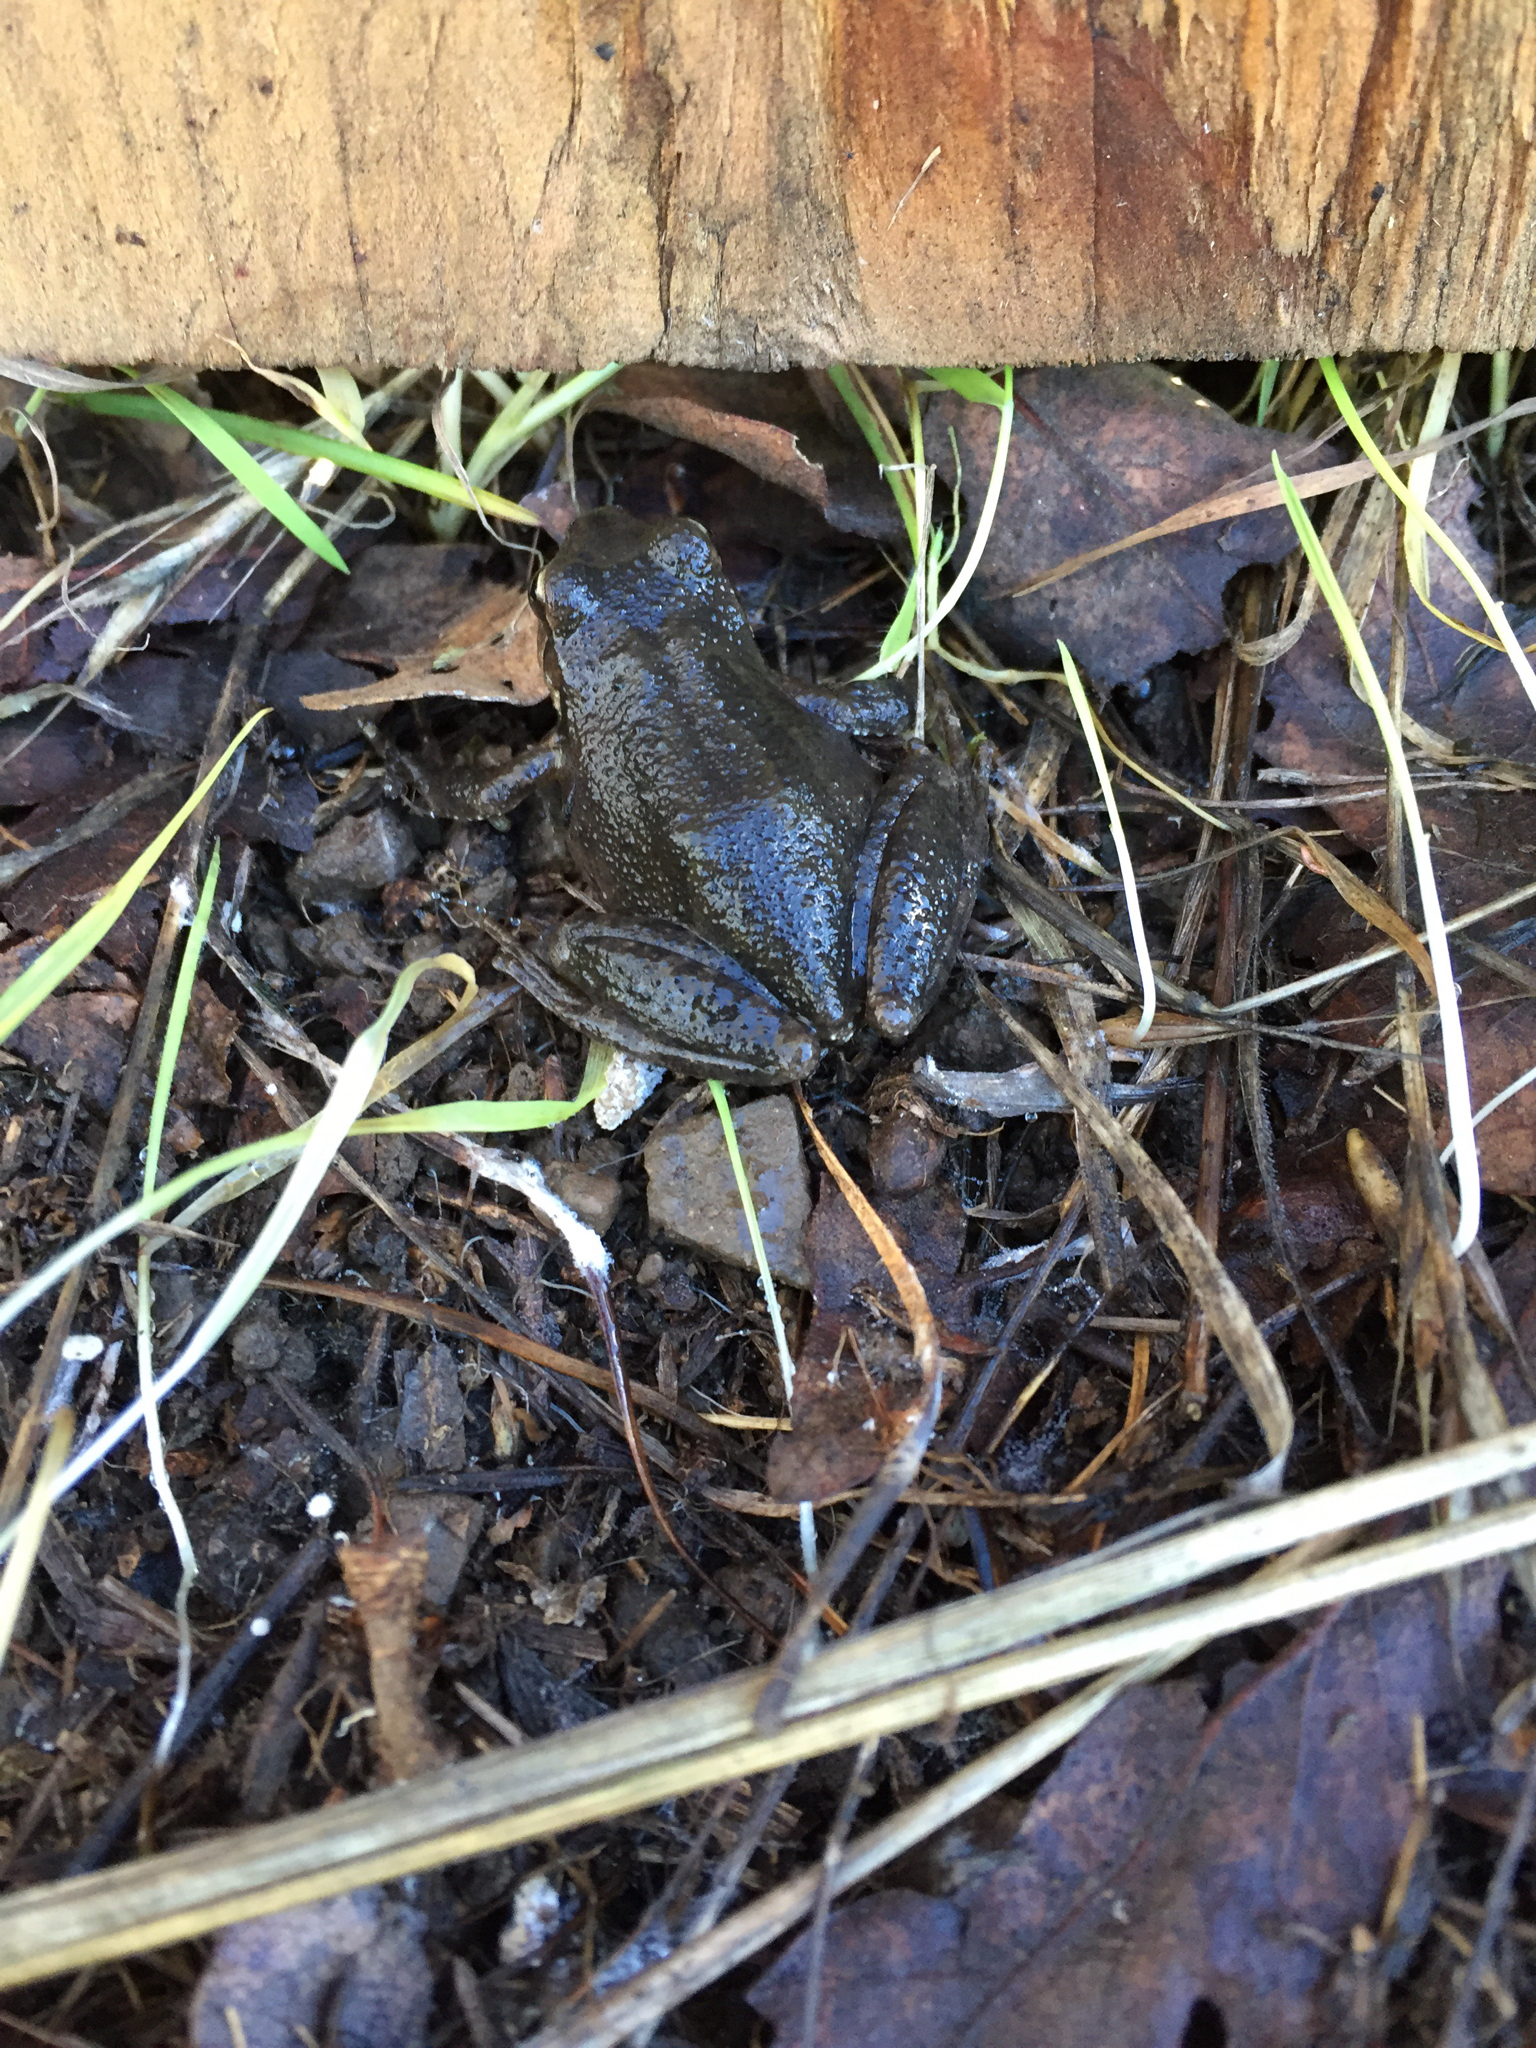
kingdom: Animalia
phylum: Chordata
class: Amphibia
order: Anura
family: Hylidae
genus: Pseudacris
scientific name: Pseudacris regilla
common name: Pacific chorus frog
